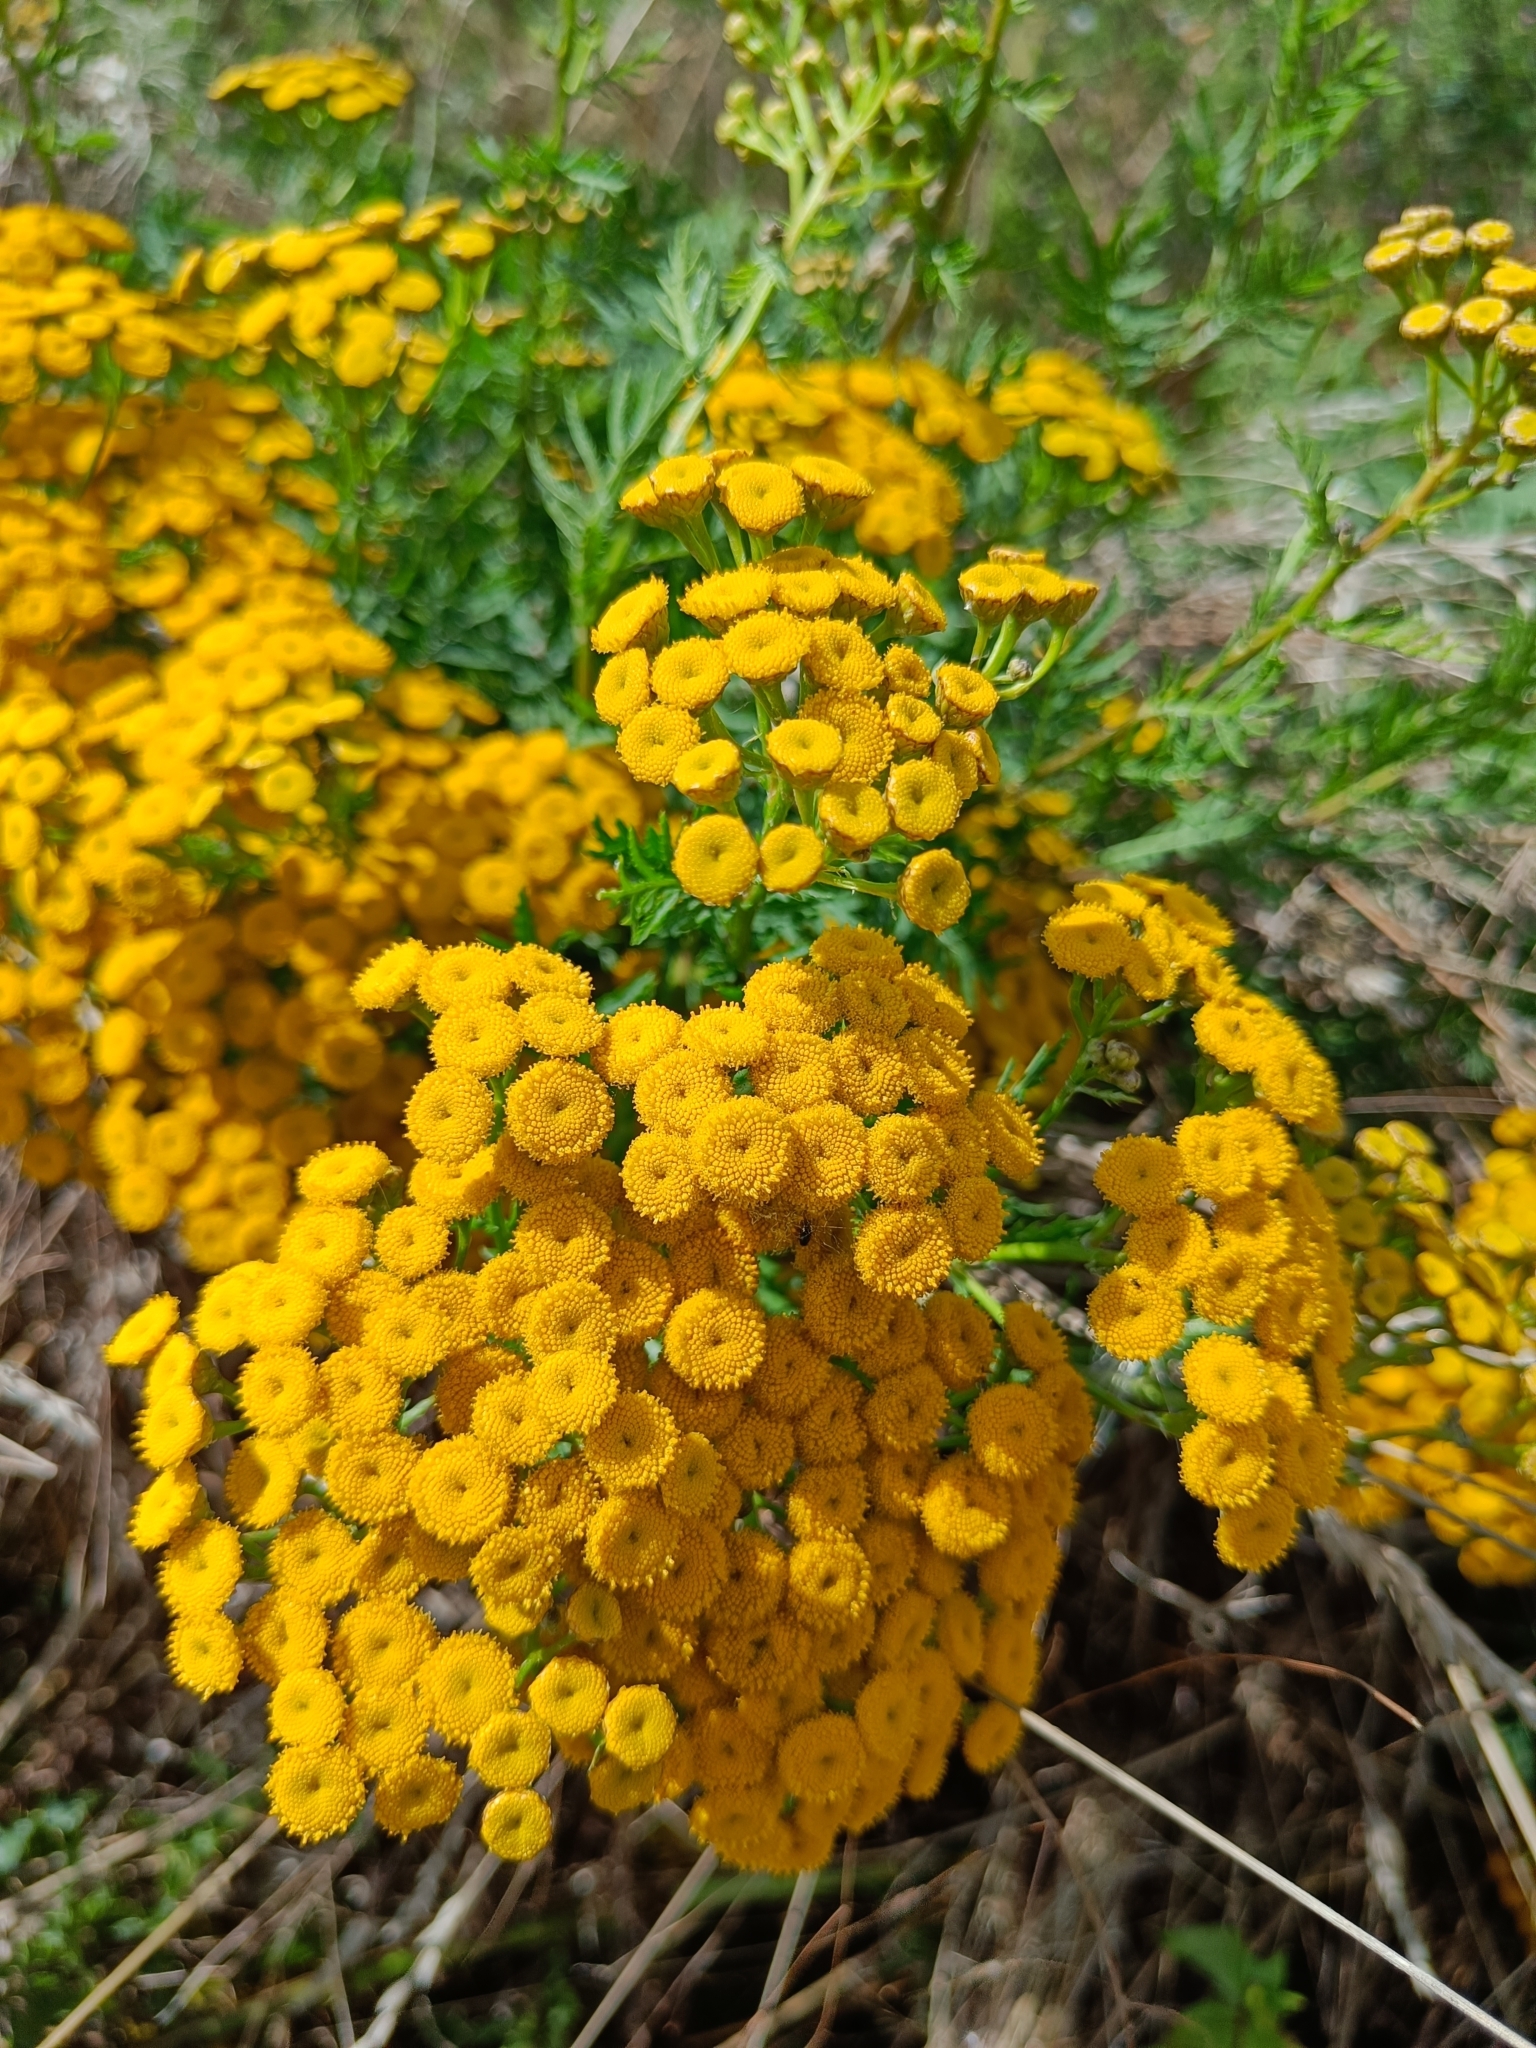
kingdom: Plantae
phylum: Tracheophyta
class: Magnoliopsida
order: Asterales
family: Asteraceae
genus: Tanacetum
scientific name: Tanacetum vulgare
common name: Common tansy
